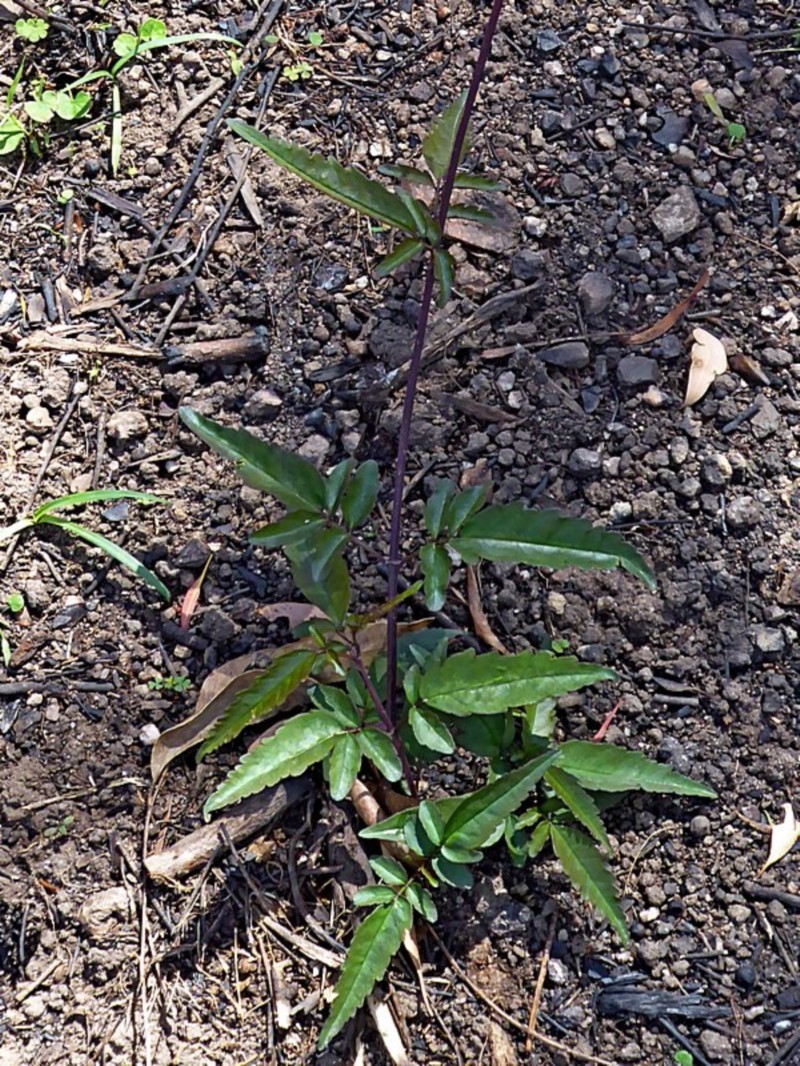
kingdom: Plantae
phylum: Tracheophyta
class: Magnoliopsida
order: Lamiales
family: Bignoniaceae
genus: Pandorea
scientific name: Pandorea pandorana
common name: Wonga-wonga-vine
